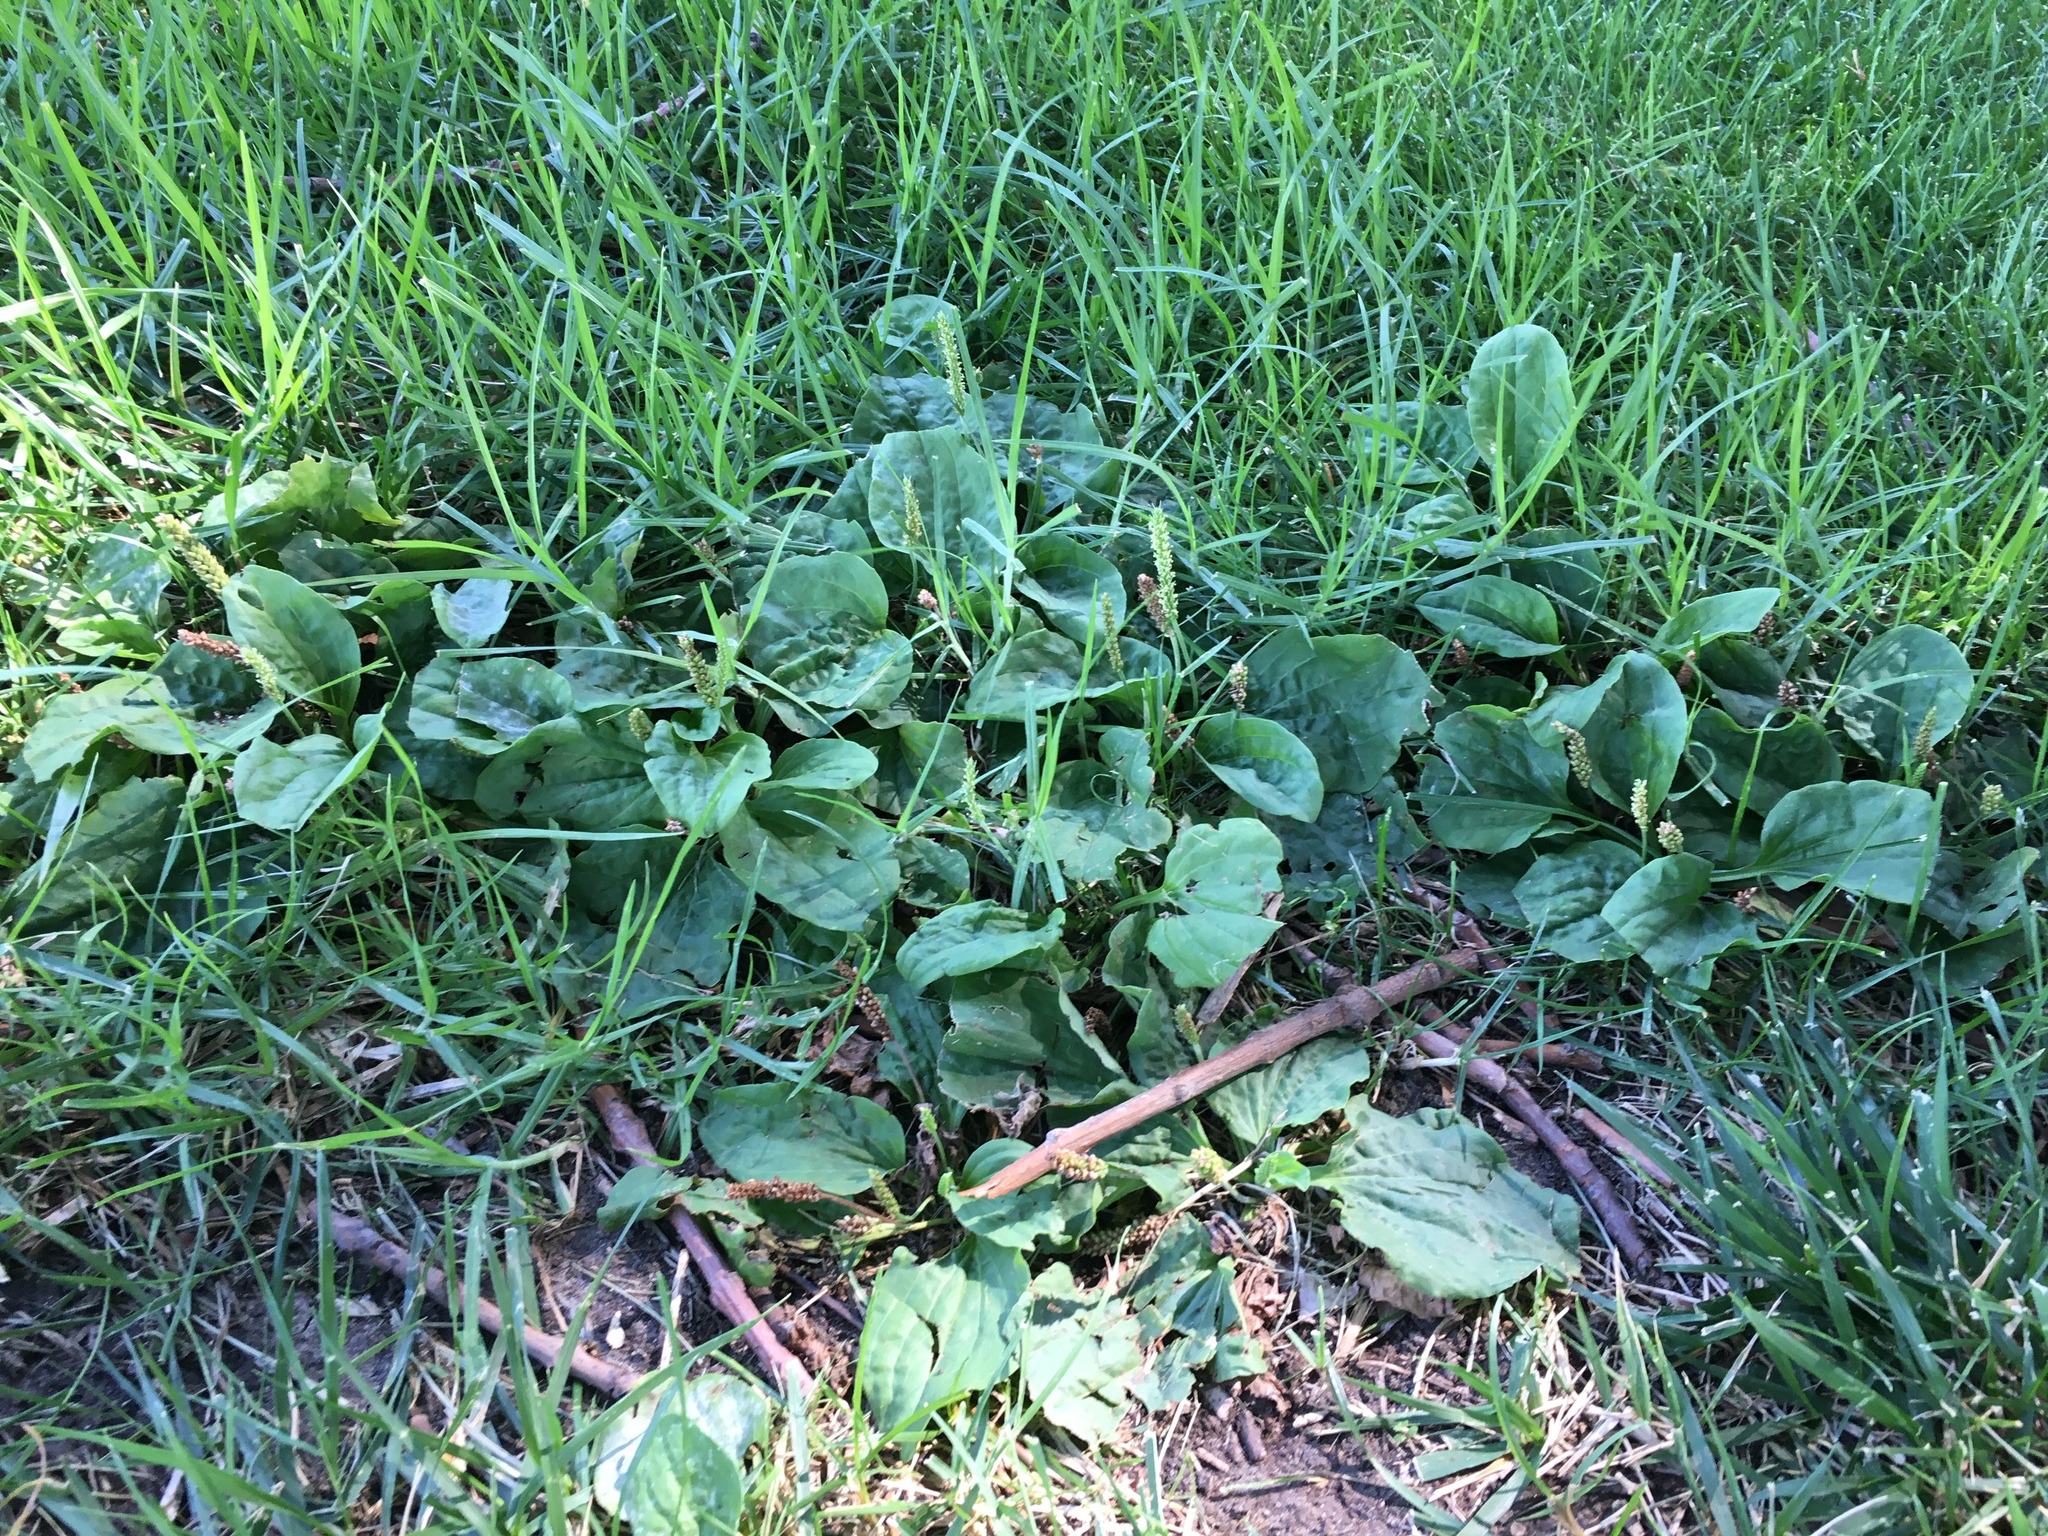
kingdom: Plantae
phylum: Tracheophyta
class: Magnoliopsida
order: Lamiales
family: Plantaginaceae
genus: Plantago
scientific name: Plantago major
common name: Common plantain
